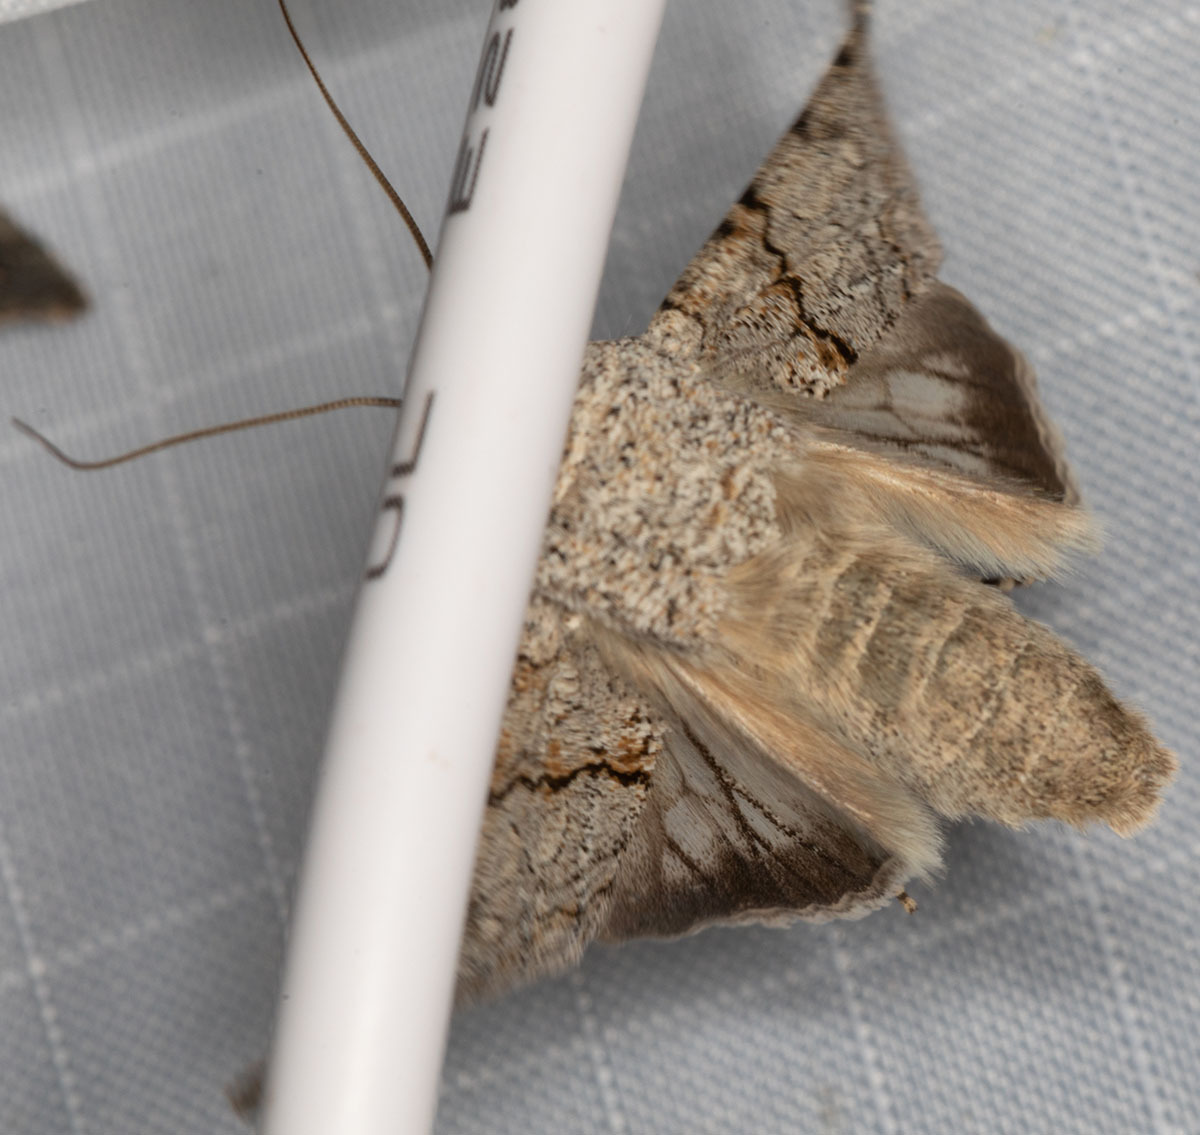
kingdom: Animalia
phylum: Arthropoda
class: Insecta
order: Lepidoptera
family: Noctuidae
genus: Sympistis
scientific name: Sympistis perscripta
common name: Scribbled sallow
